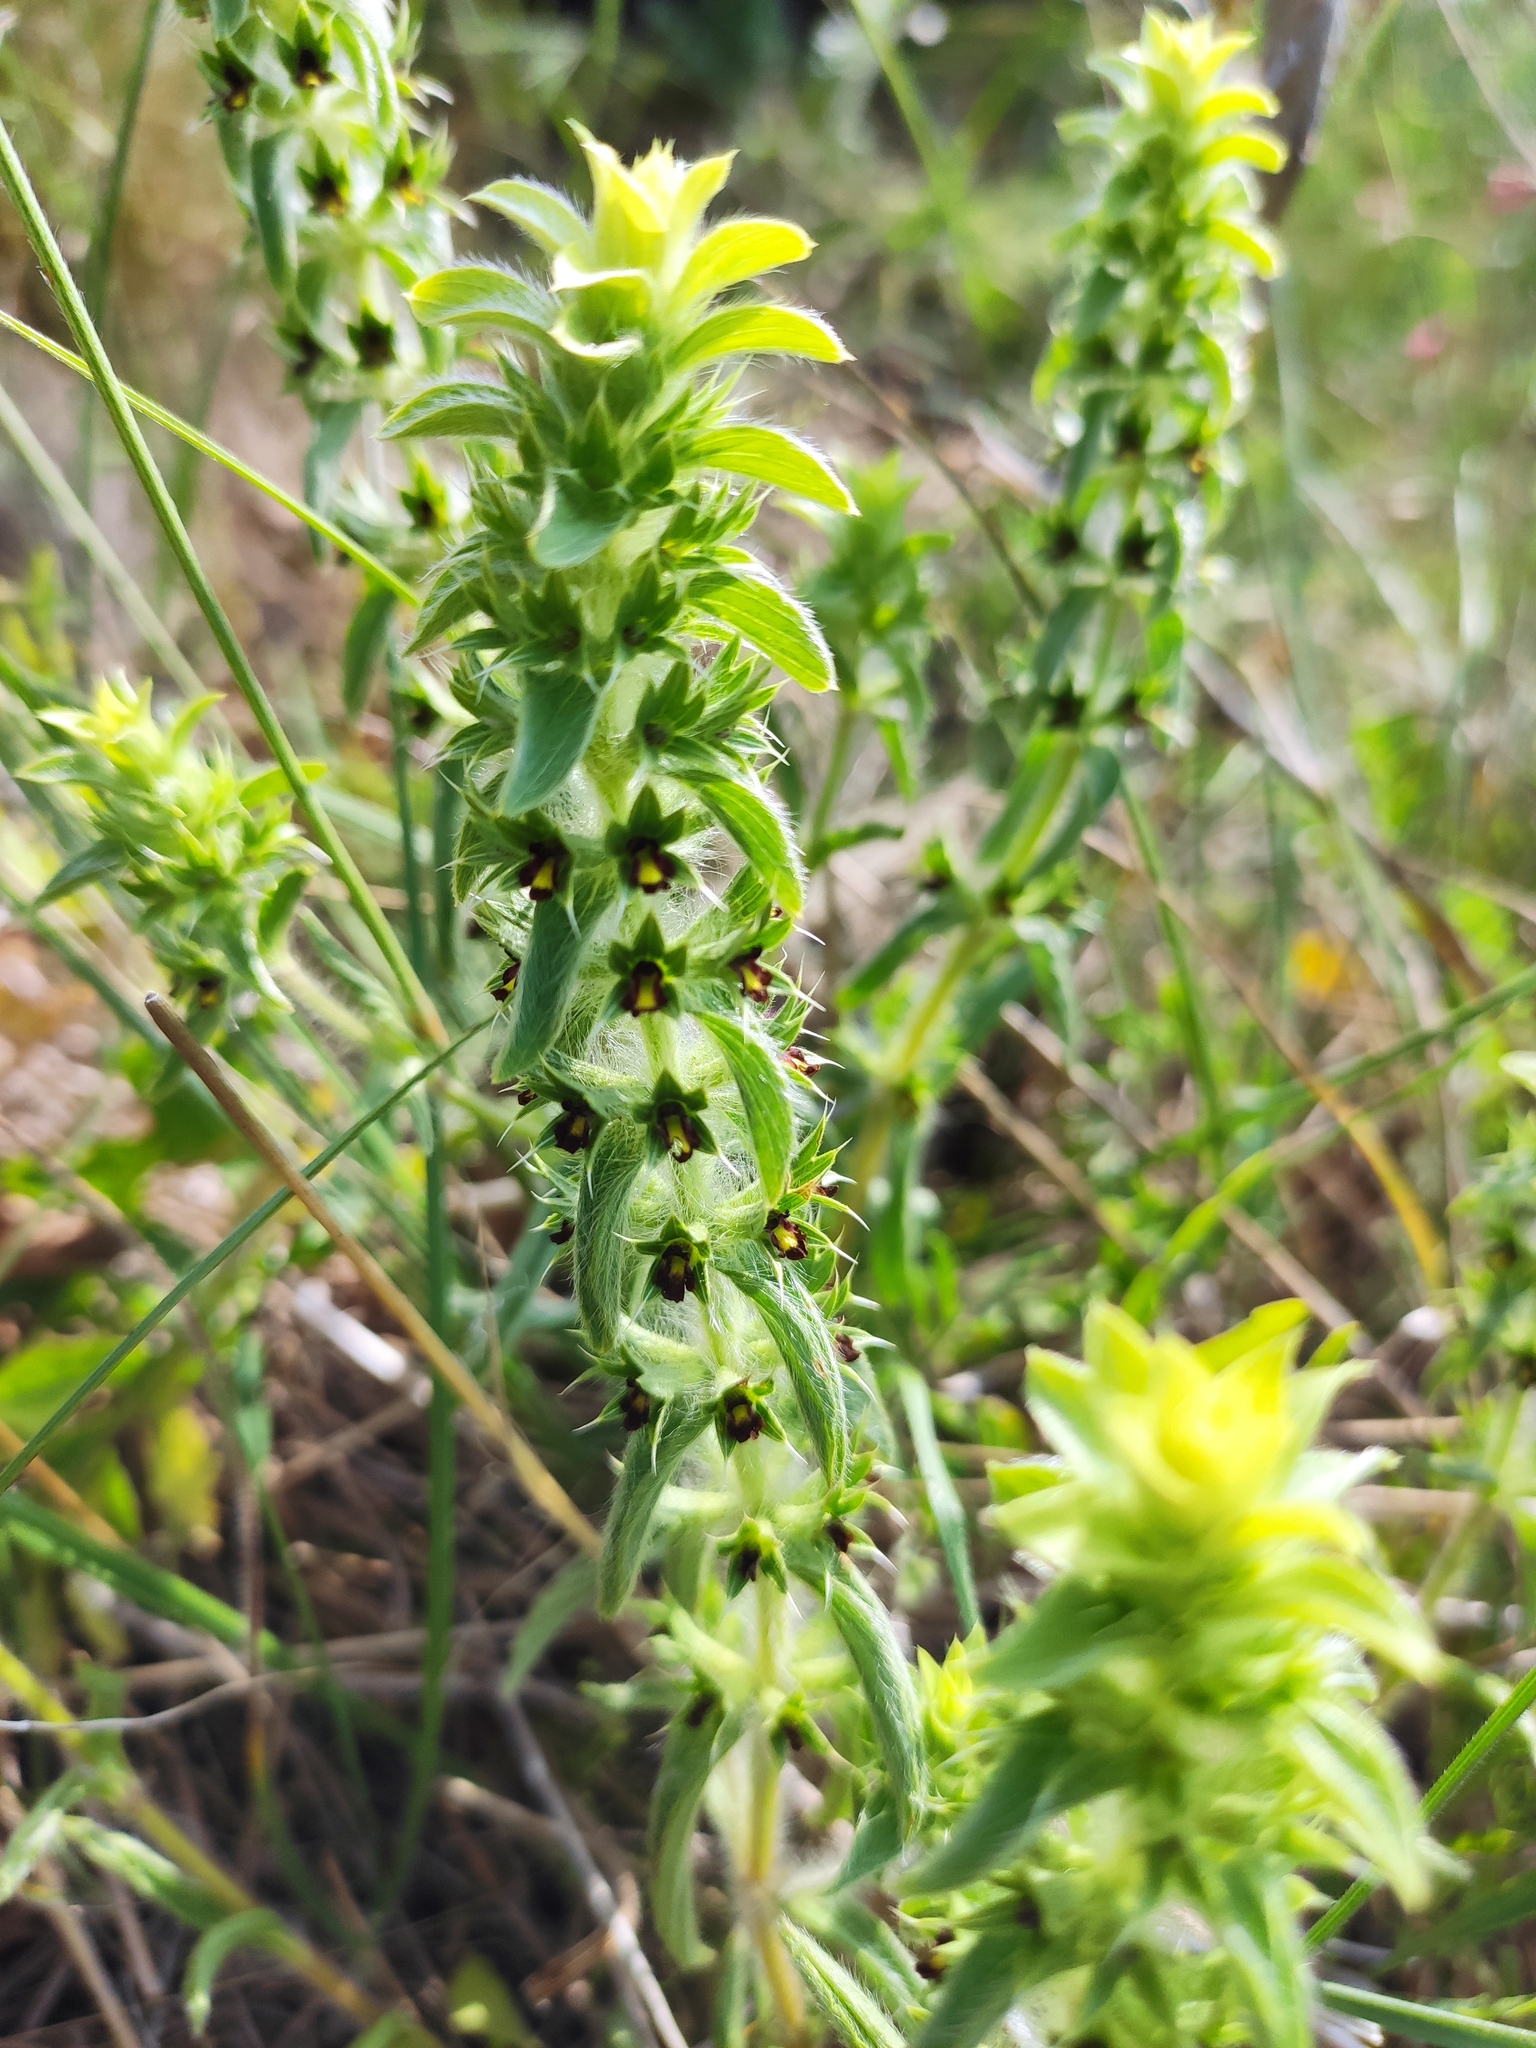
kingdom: Plantae
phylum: Tracheophyta
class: Magnoliopsida
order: Lamiales
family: Lamiaceae
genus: Sideritis
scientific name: Sideritis montana
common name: Mountain ironwort
